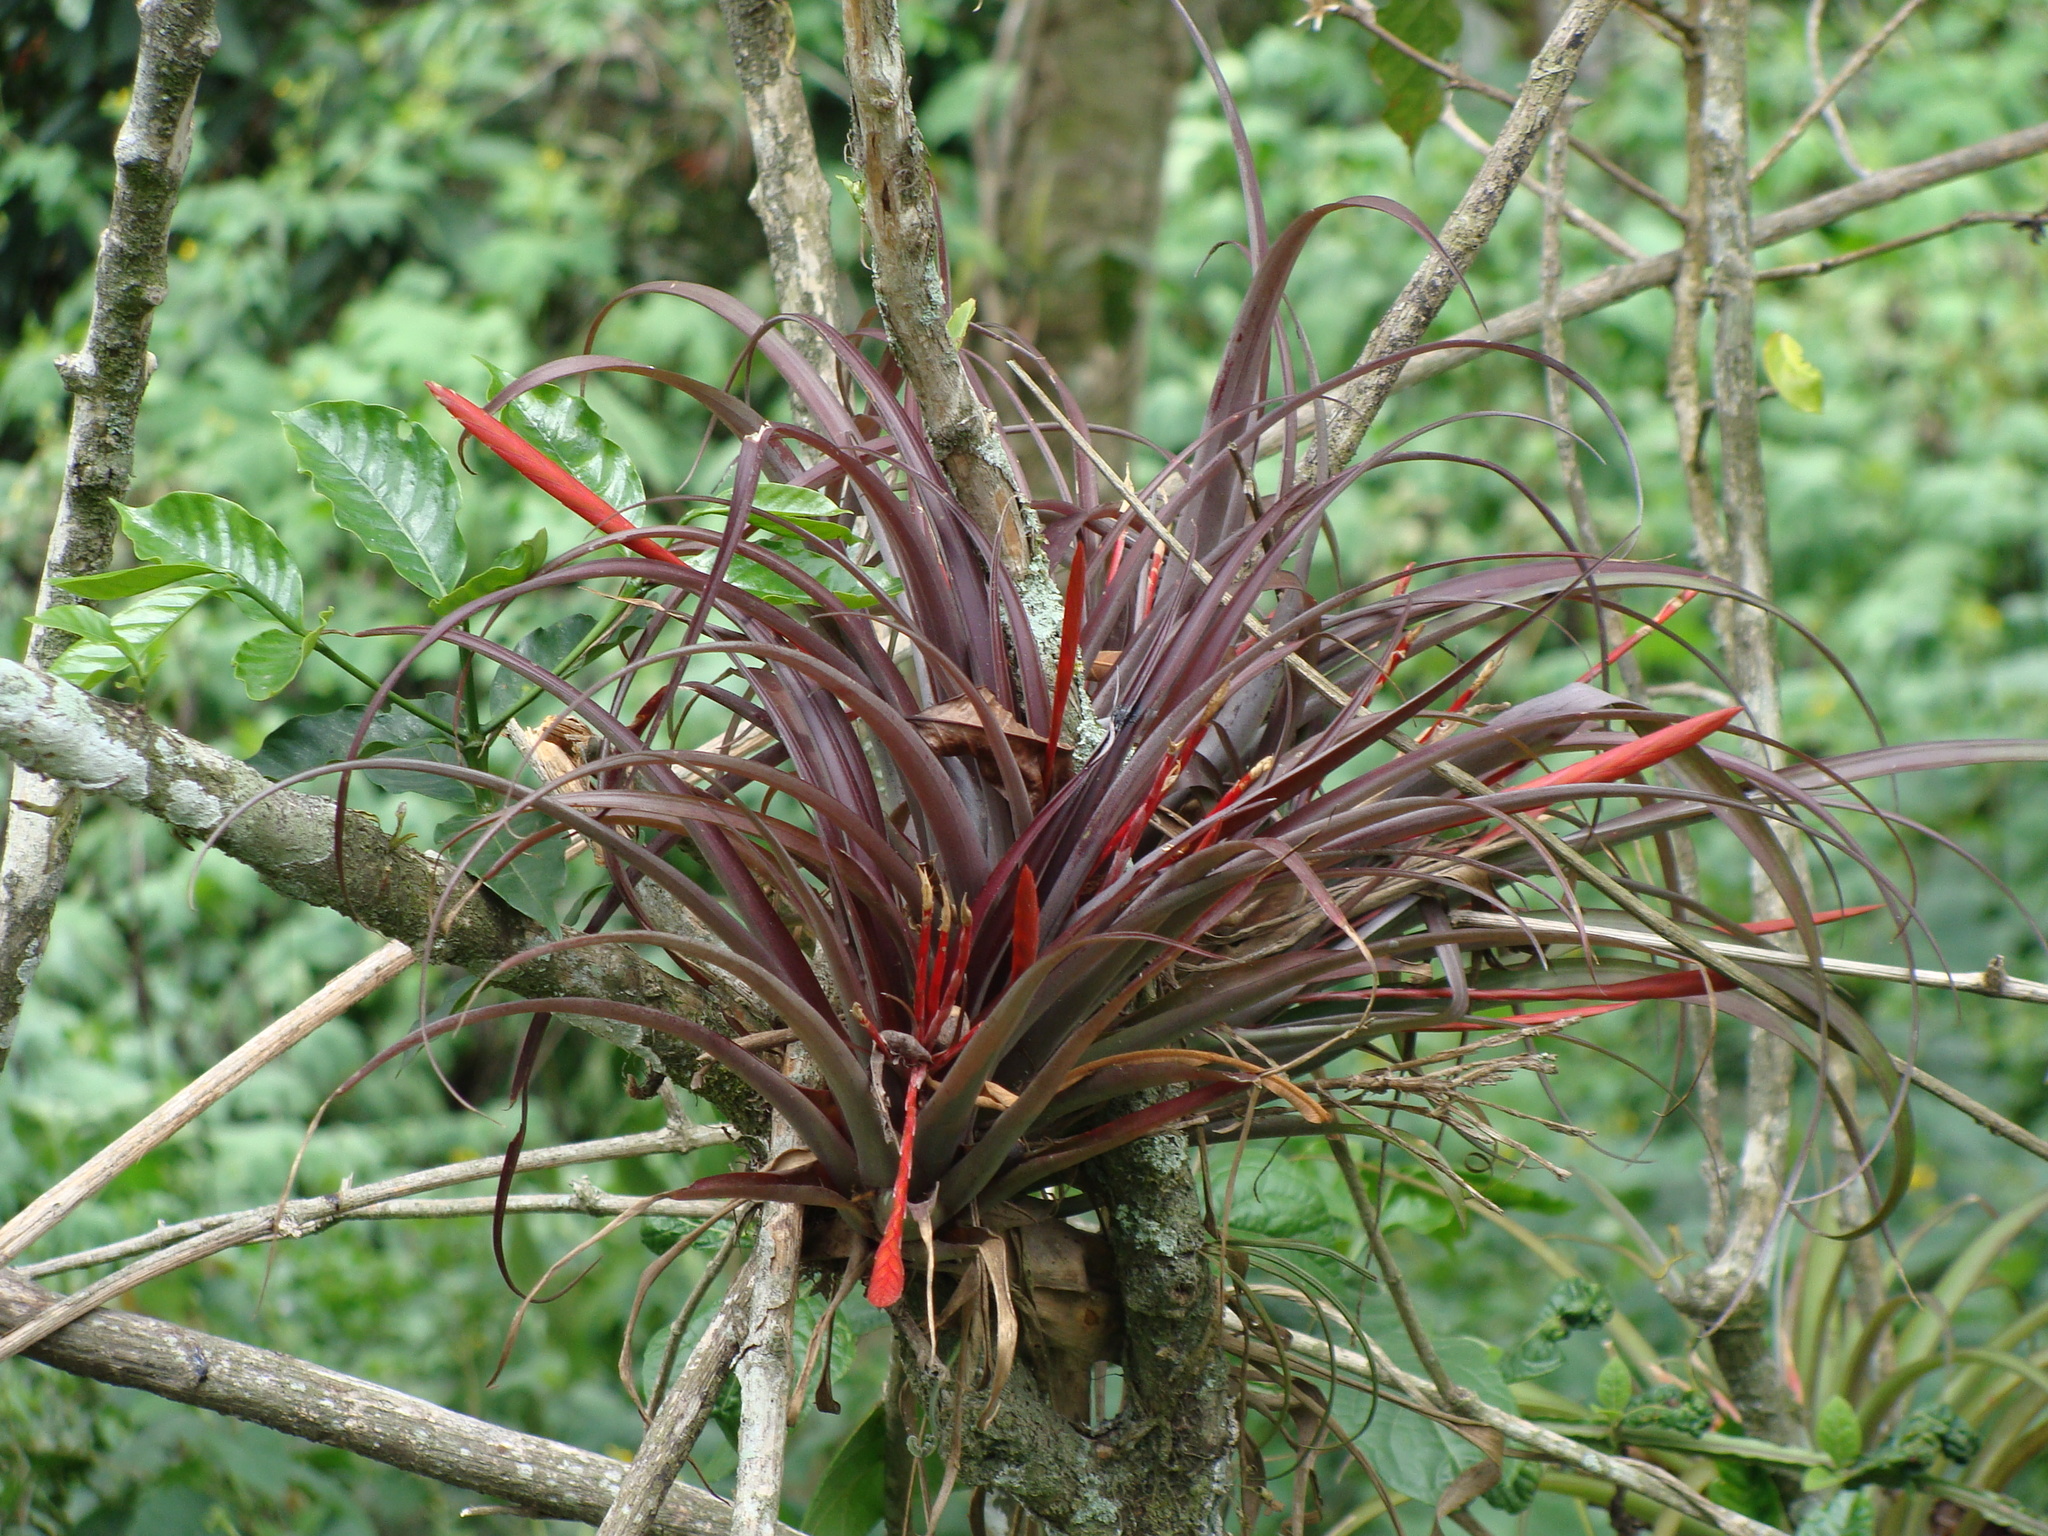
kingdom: Plantae
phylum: Tracheophyta
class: Liliopsida
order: Poales
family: Bromeliaceae
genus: Tillandsia
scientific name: Tillandsia flabellata
